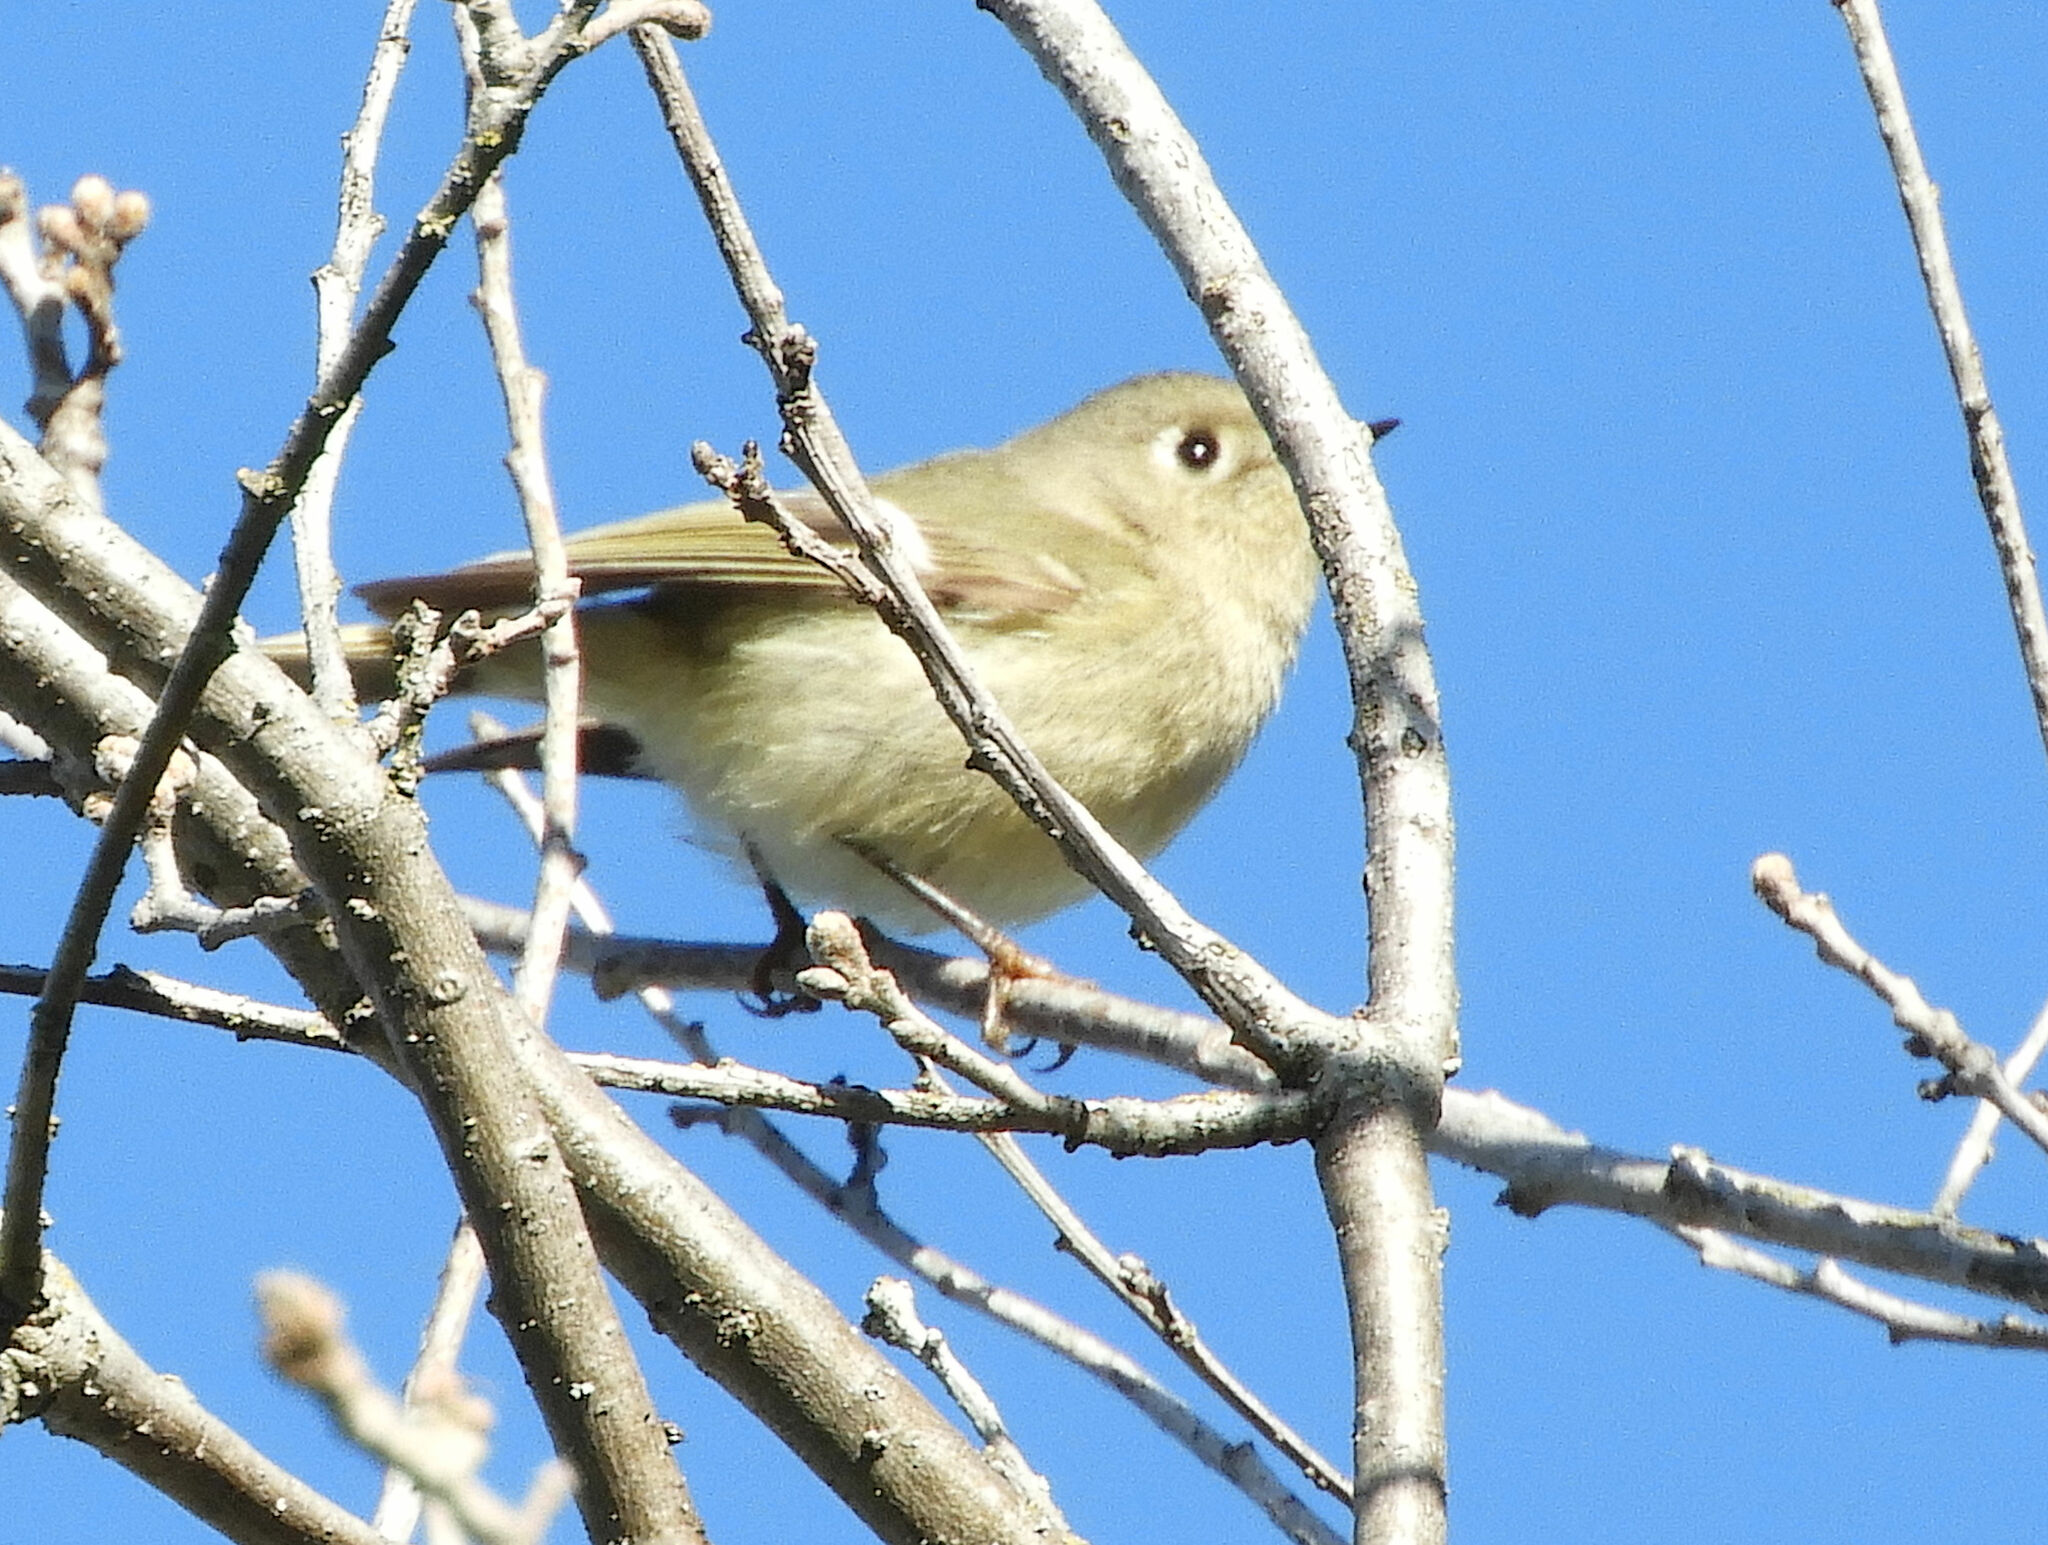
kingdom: Animalia
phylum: Chordata
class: Aves
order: Passeriformes
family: Regulidae
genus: Regulus
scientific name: Regulus calendula
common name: Ruby-crowned kinglet
